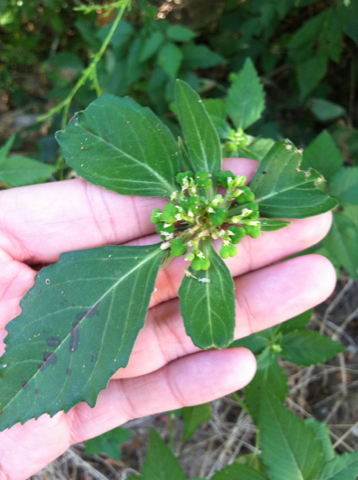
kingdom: Plantae
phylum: Tracheophyta
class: Magnoliopsida
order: Malpighiales
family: Euphorbiaceae
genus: Euphorbia
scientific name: Euphorbia dentata
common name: Dentate spurge
